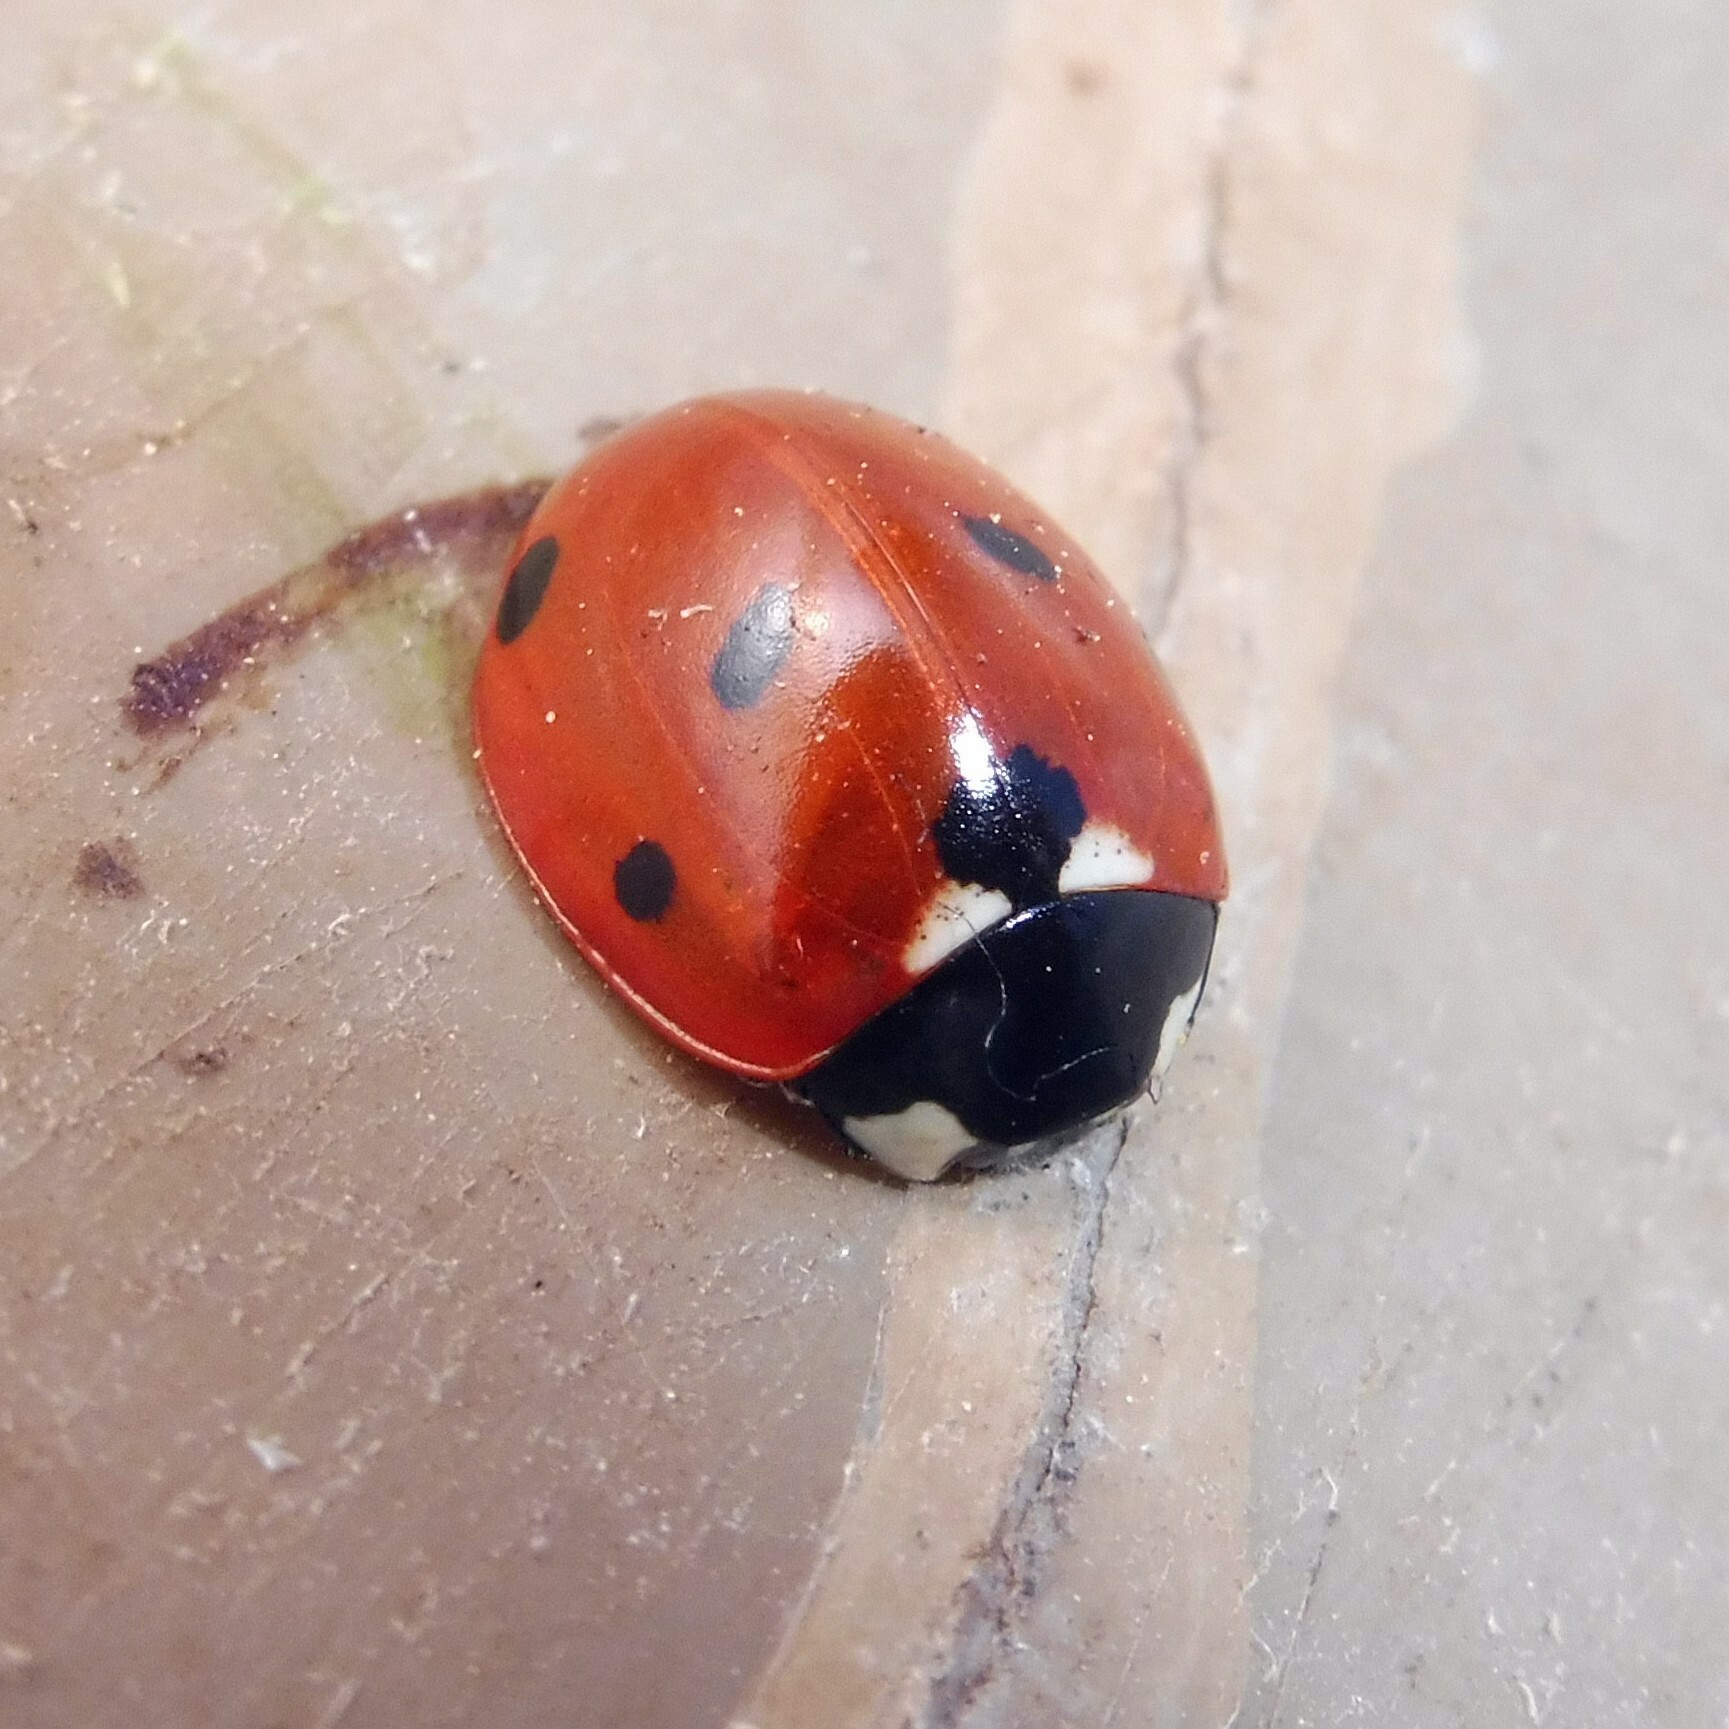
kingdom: Animalia
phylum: Arthropoda
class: Insecta
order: Coleoptera
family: Coccinellidae
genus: Coccinella
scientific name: Coccinella septempunctata
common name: Sevenspotted lady beetle
